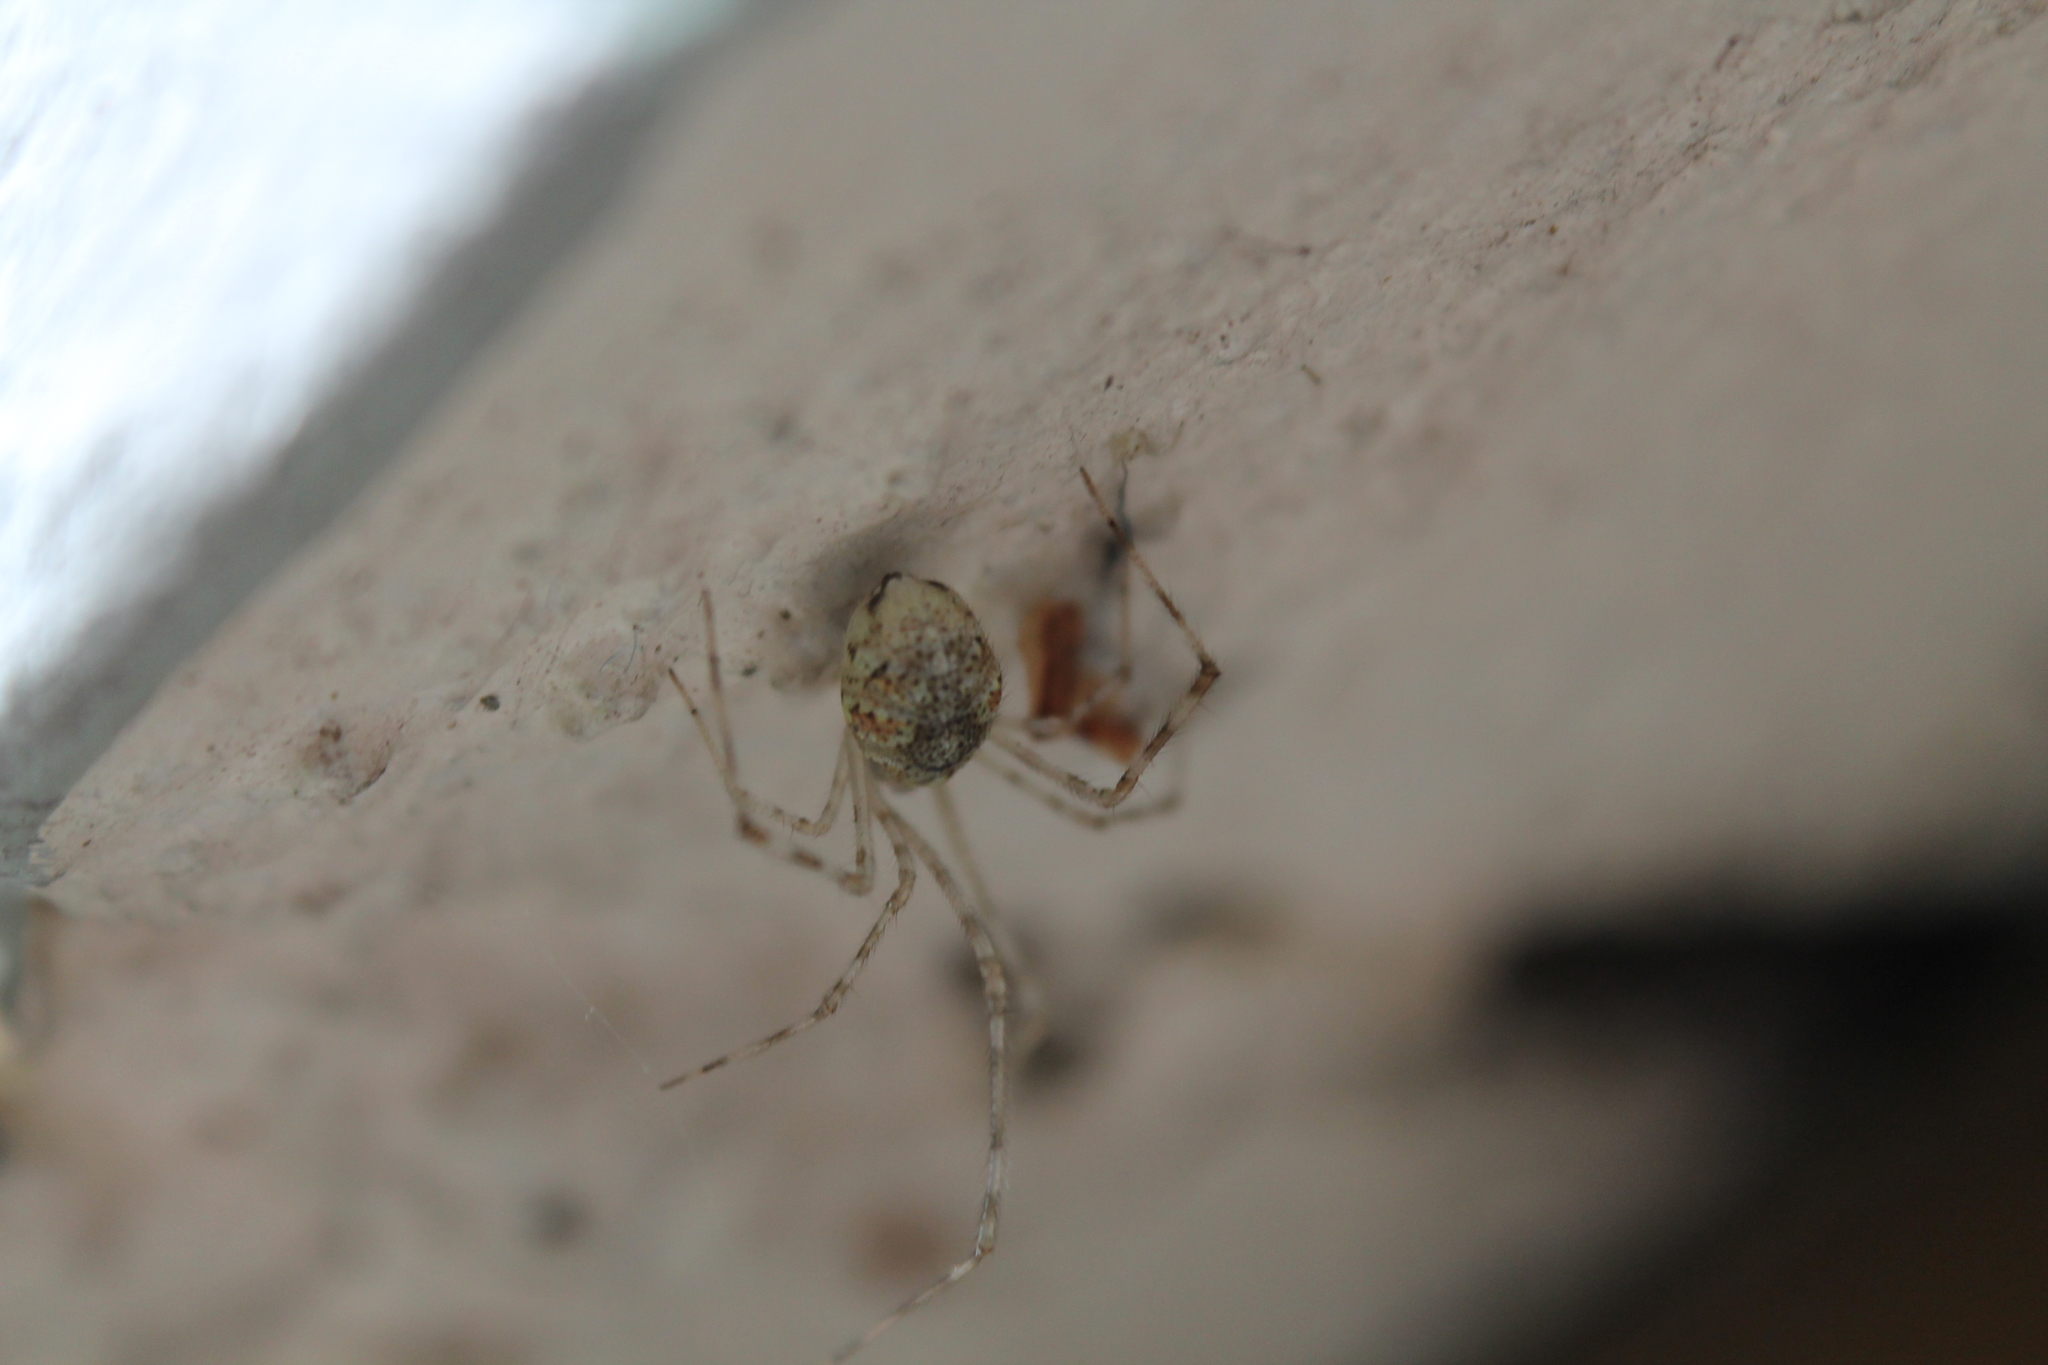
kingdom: Animalia
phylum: Arthropoda
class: Arachnida
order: Araneae
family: Theridiidae
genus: Cryptachaea
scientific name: Cryptachaea gigantipes
